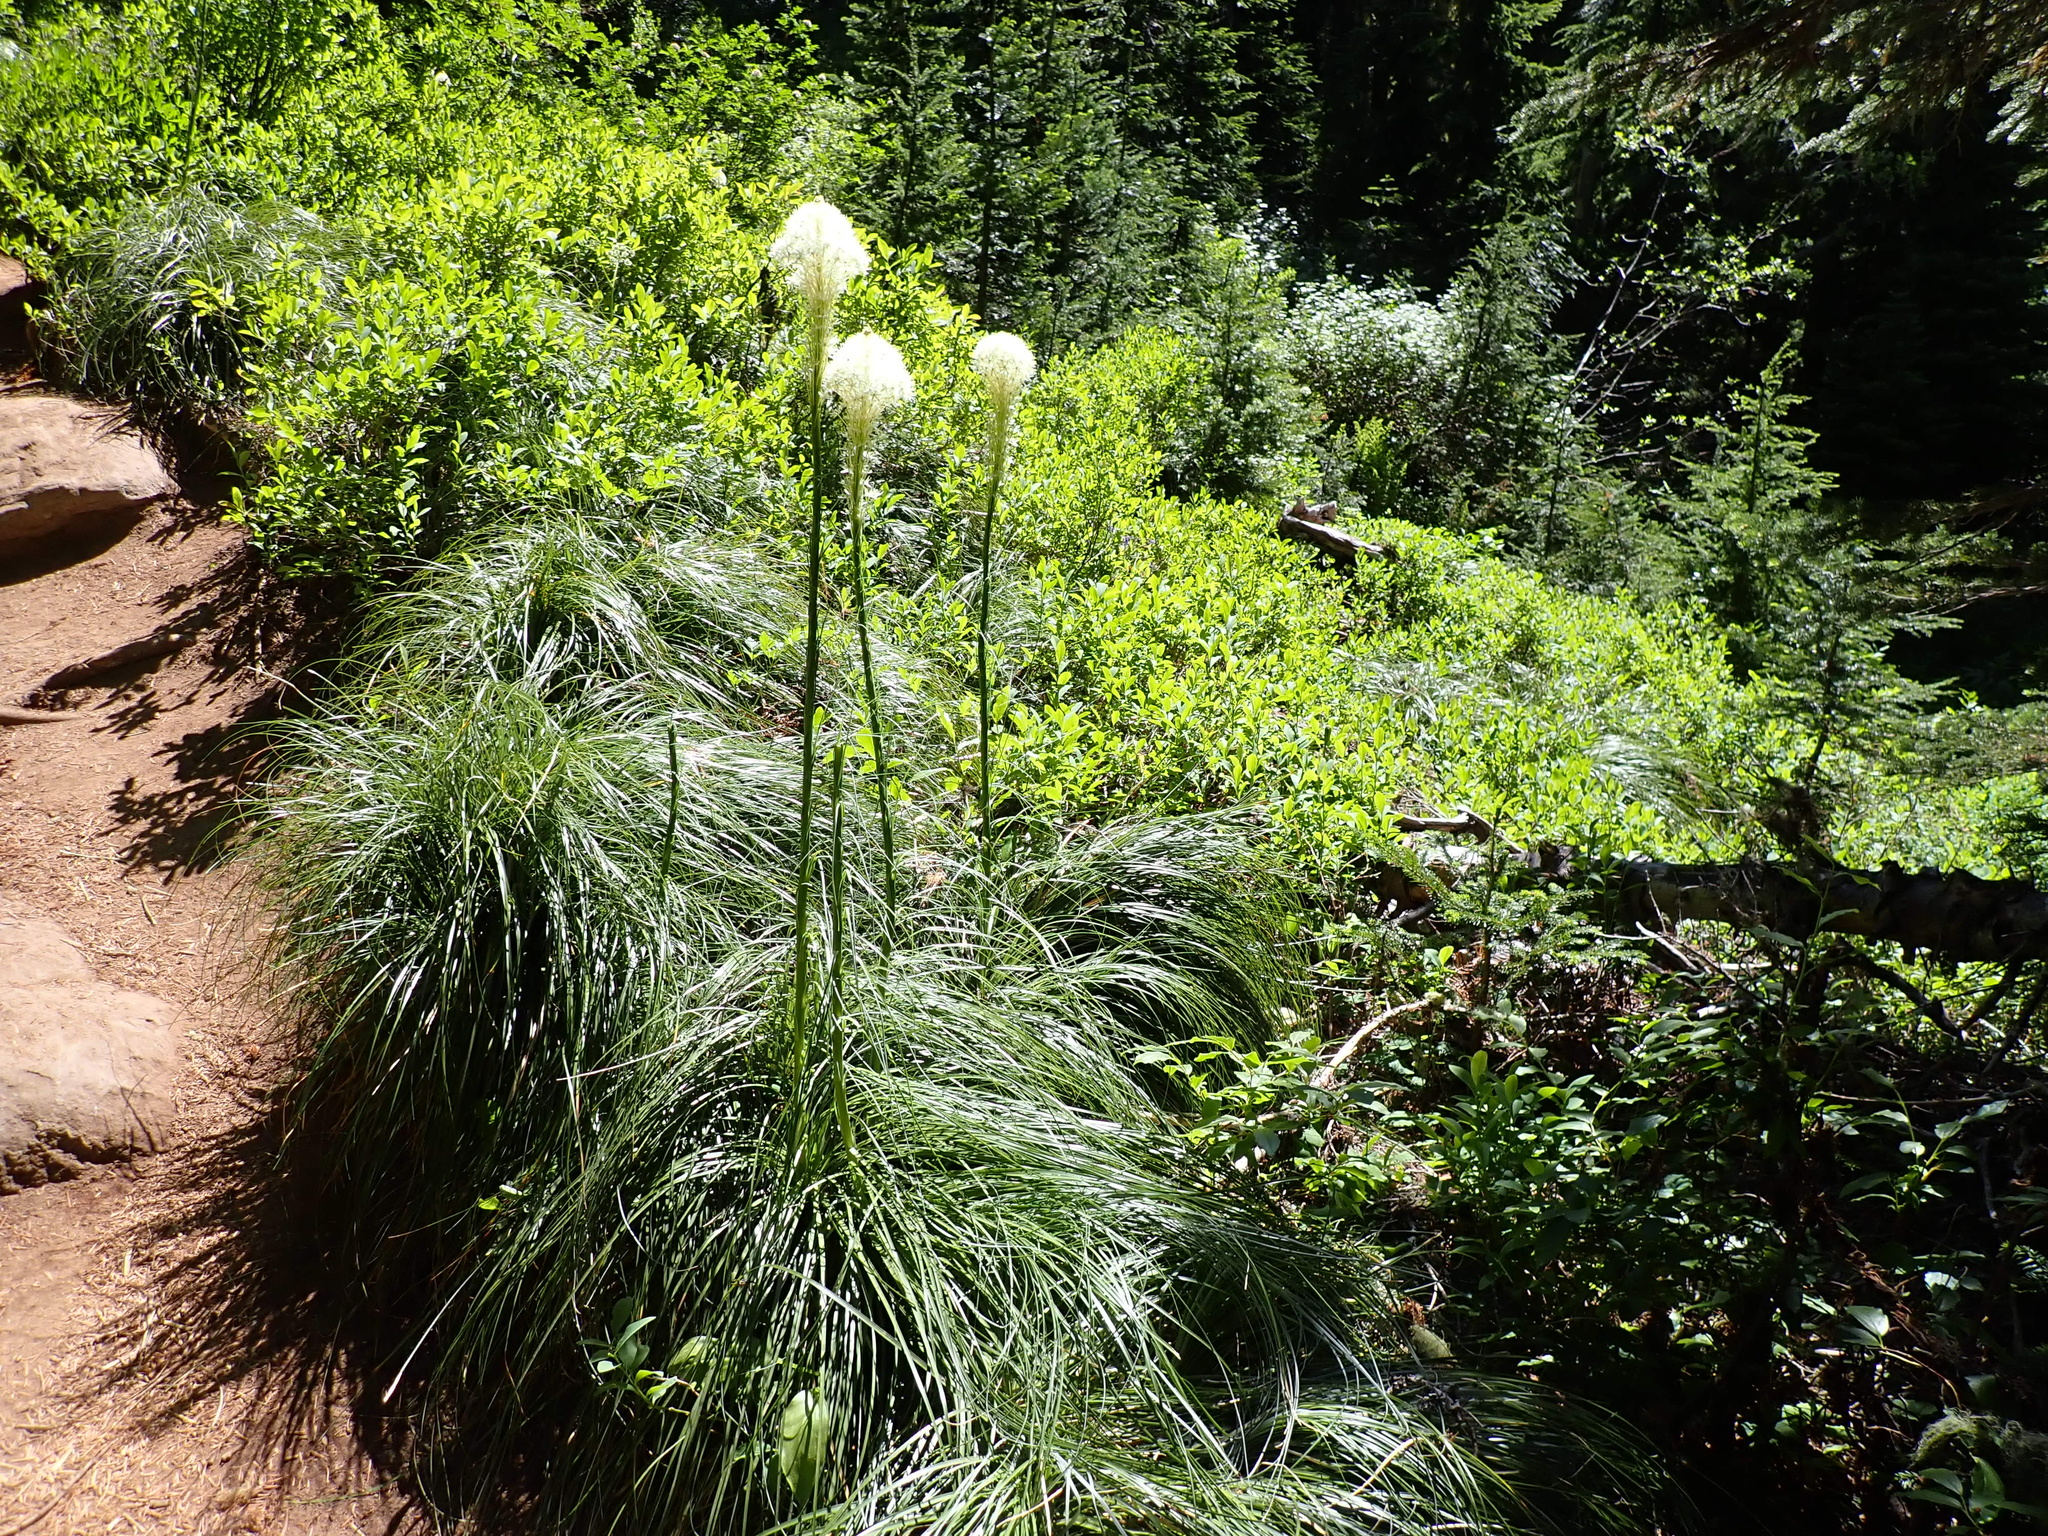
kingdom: Plantae
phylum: Tracheophyta
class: Liliopsida
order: Liliales
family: Melanthiaceae
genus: Xerophyllum
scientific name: Xerophyllum tenax
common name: Bear-grass
